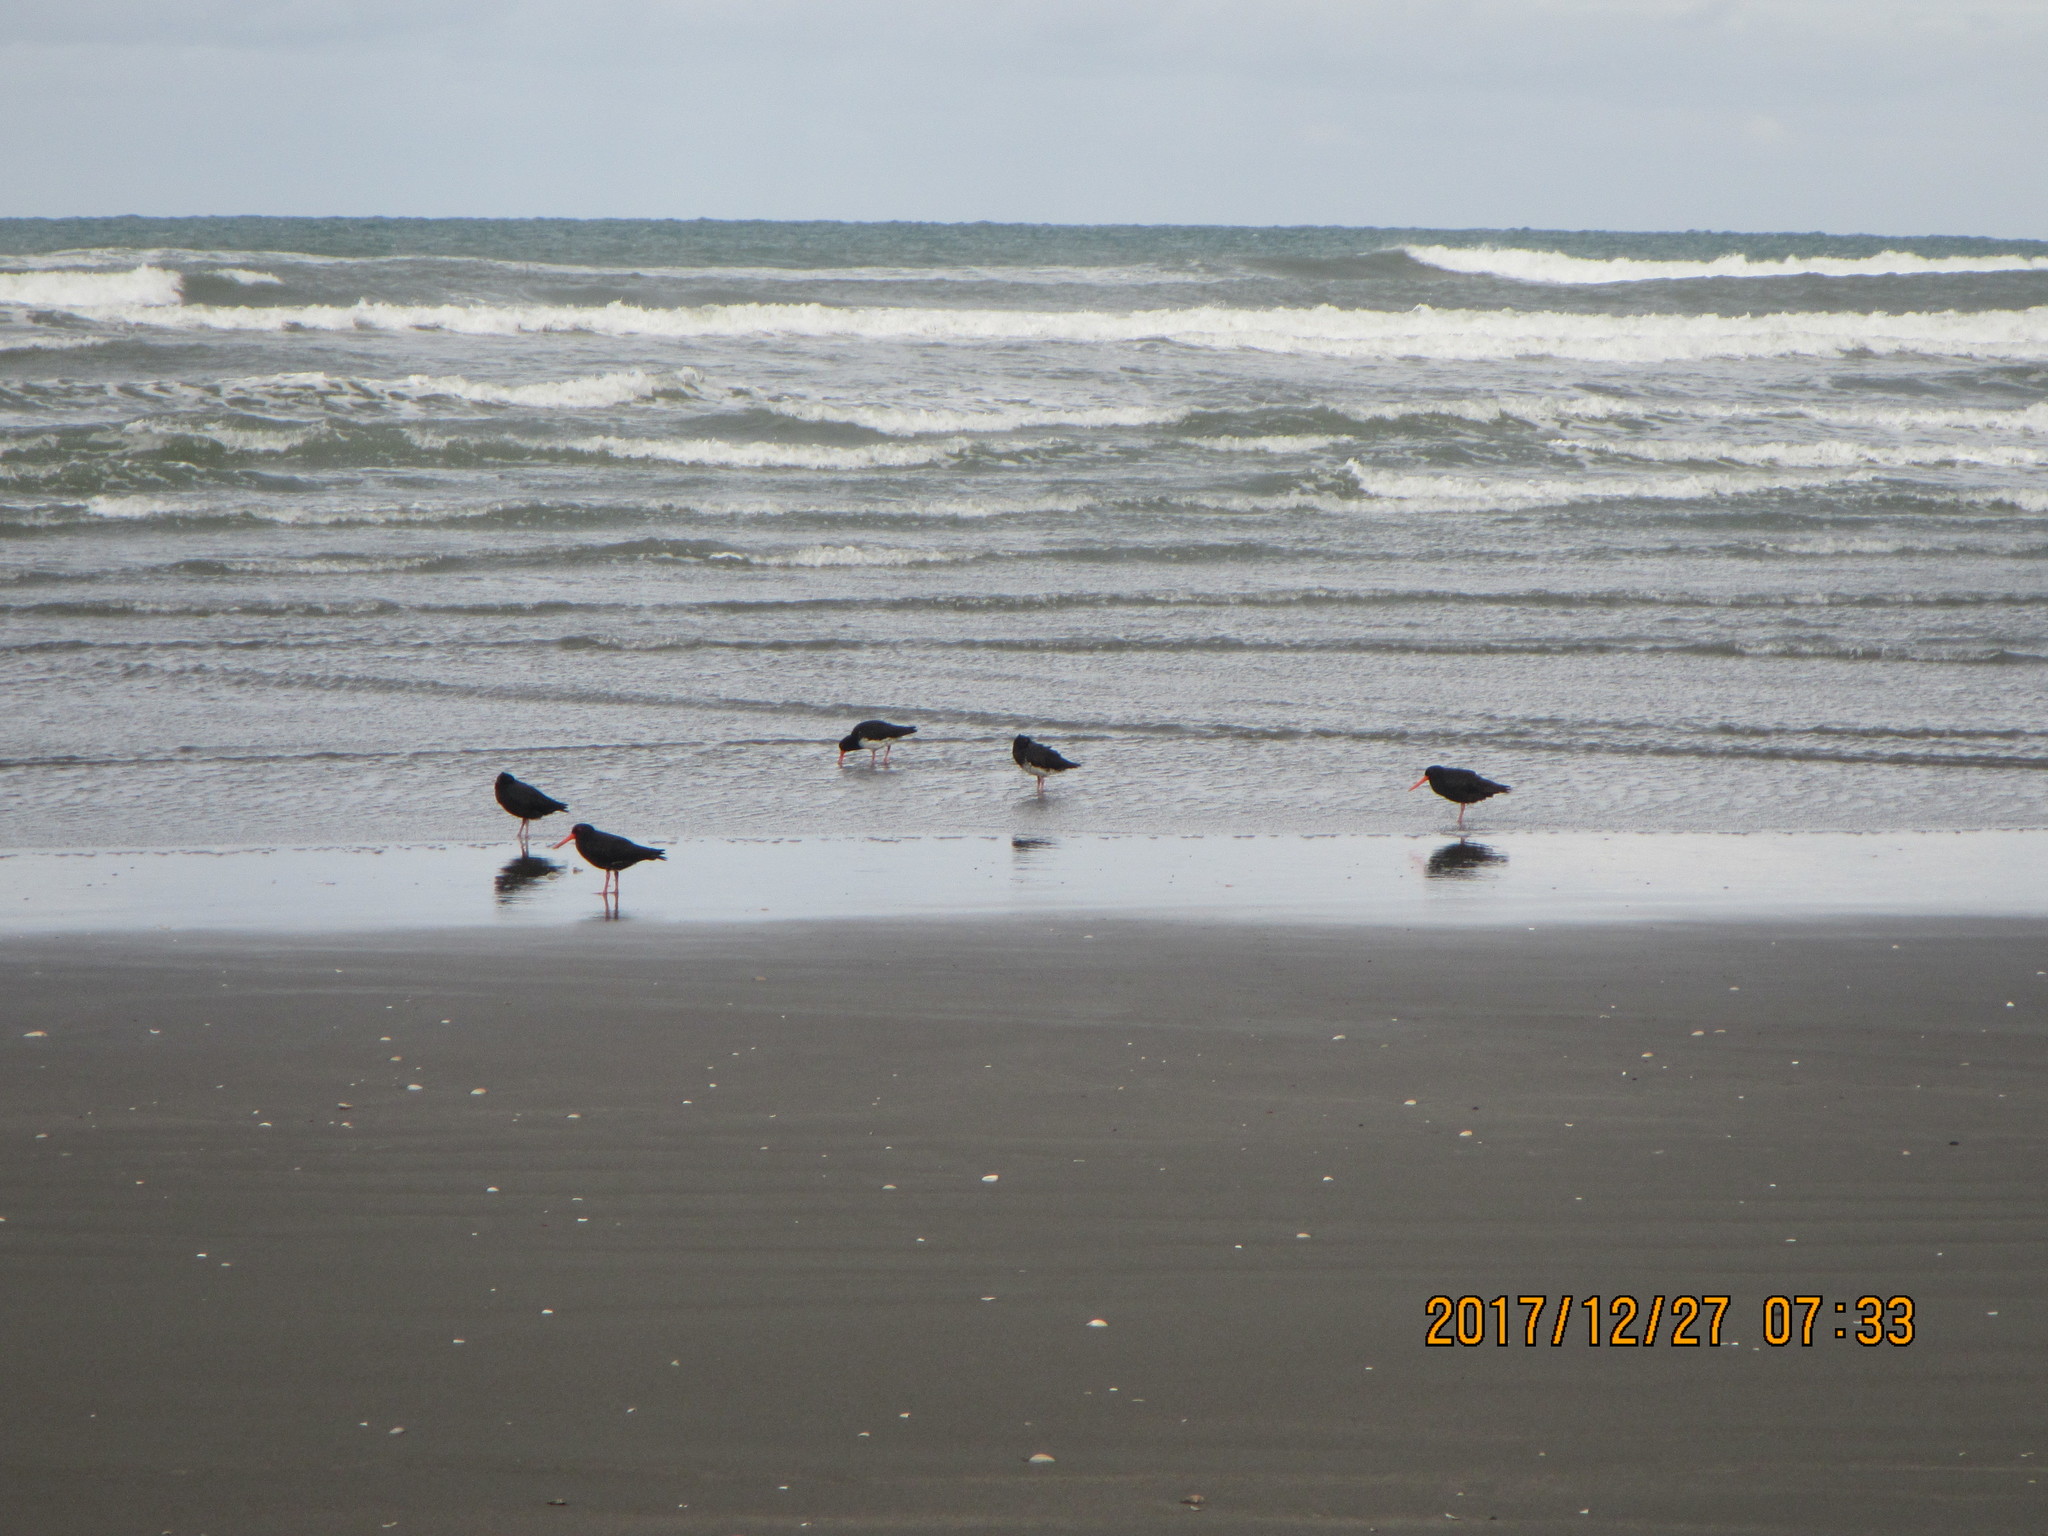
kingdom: Animalia
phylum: Chordata
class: Aves
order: Charadriiformes
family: Haematopodidae
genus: Haematopus
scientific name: Haematopus unicolor
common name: Variable oystercatcher
